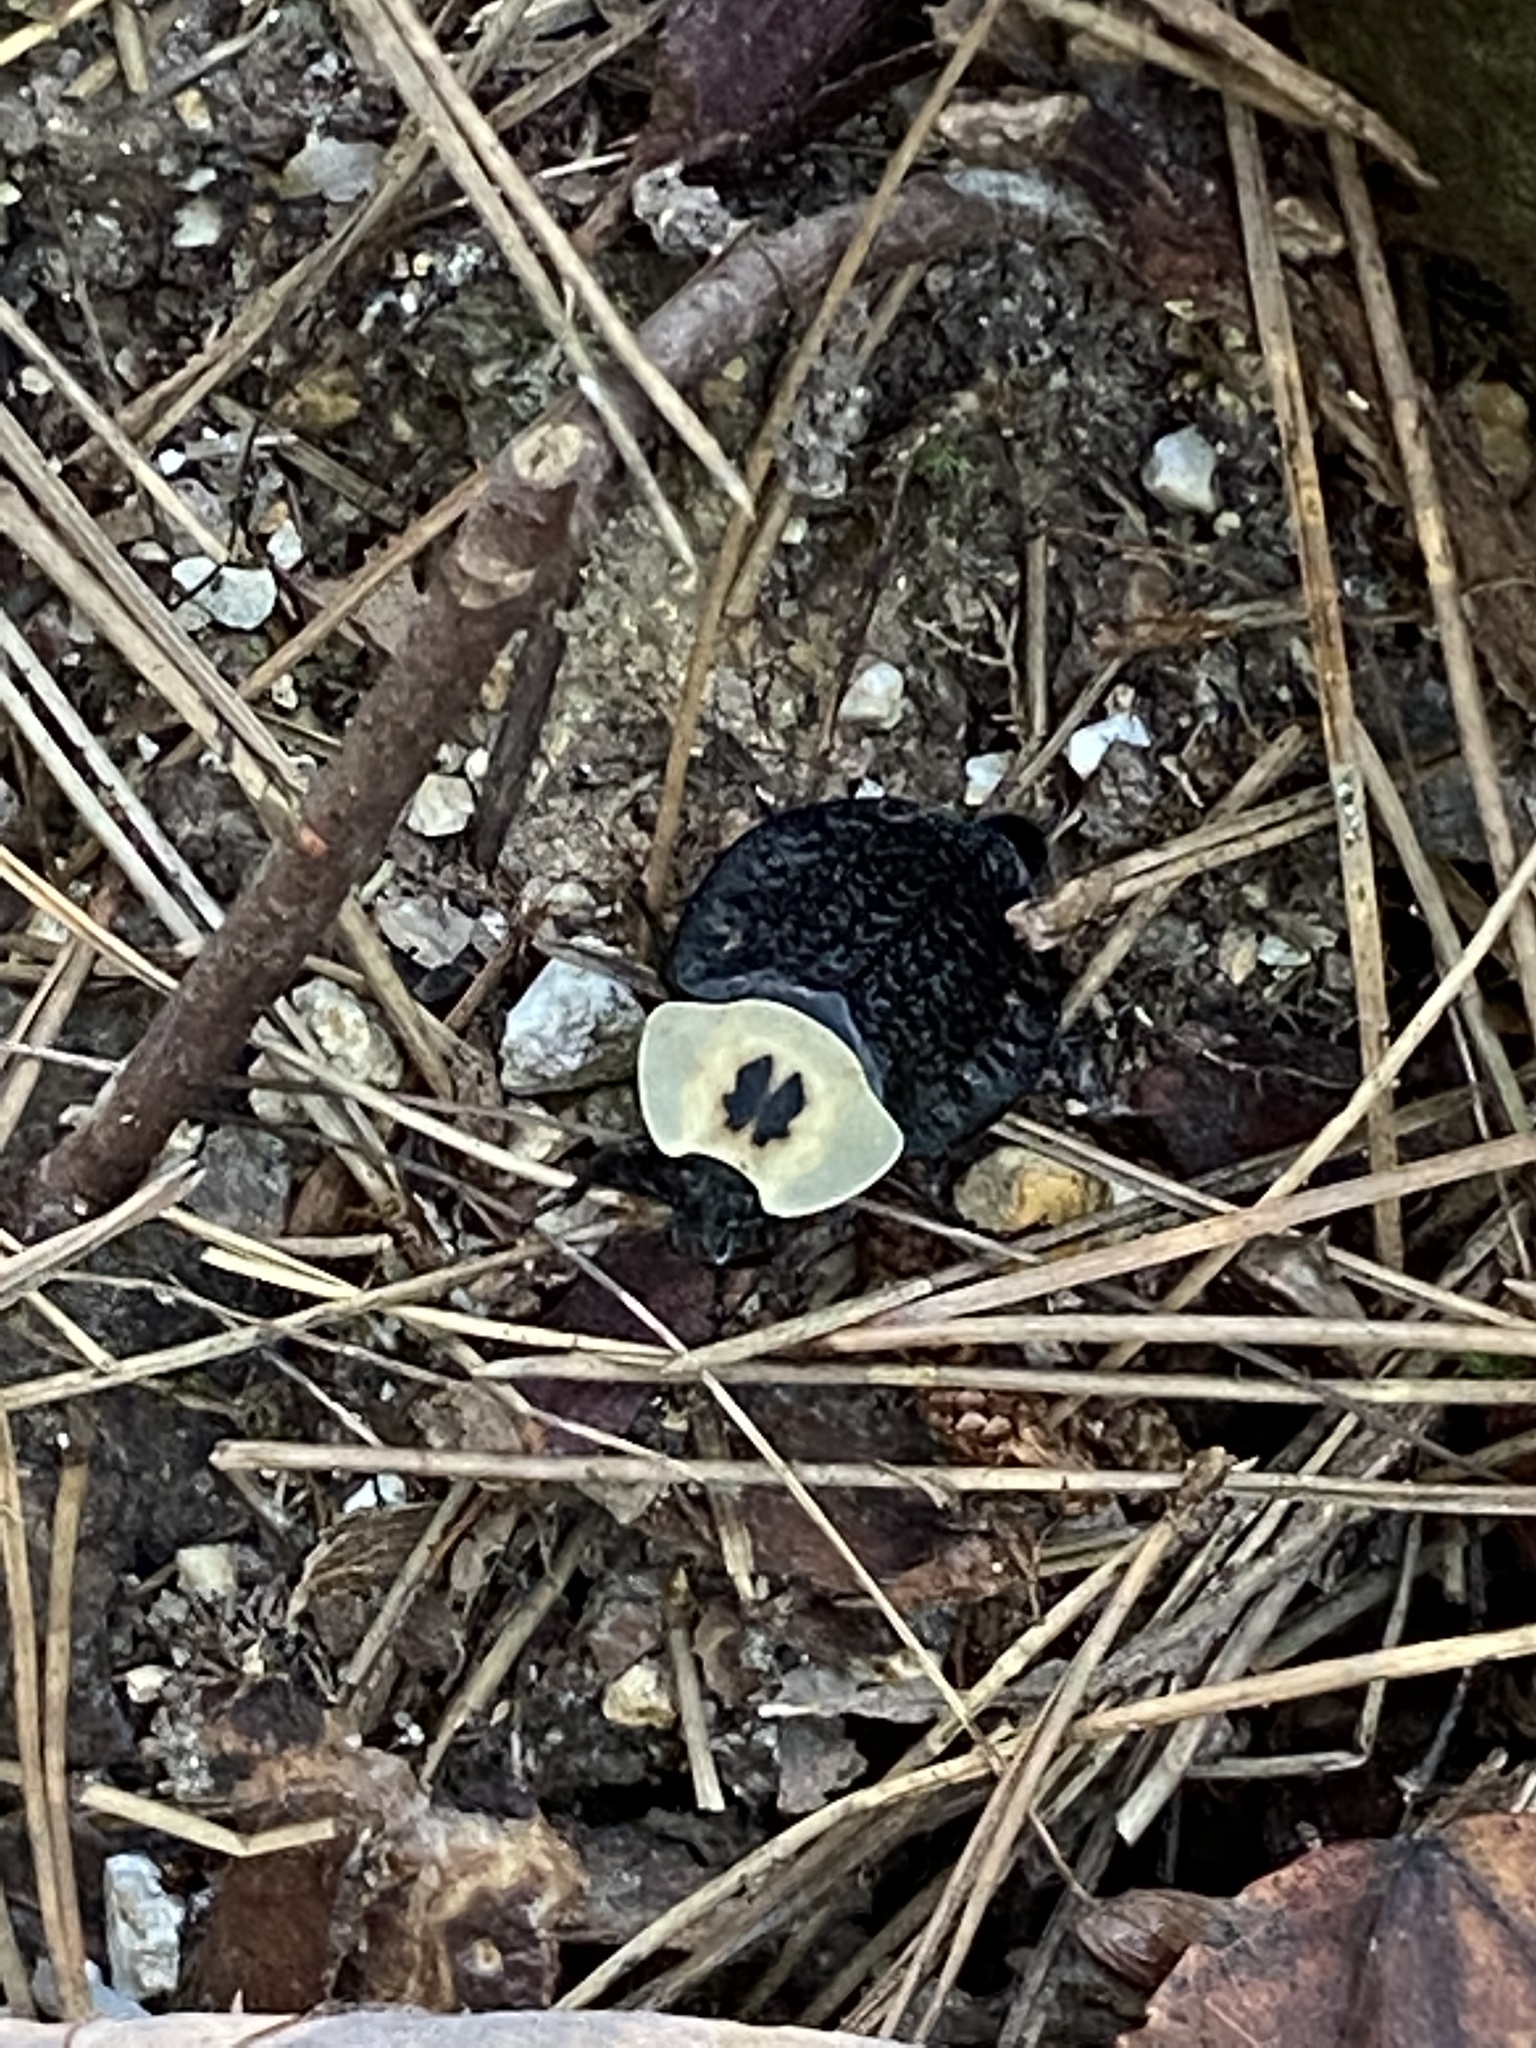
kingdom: Animalia
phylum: Arthropoda
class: Insecta
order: Coleoptera
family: Staphylinidae
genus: Necrophila
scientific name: Necrophila americana
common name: American carrion beetle
